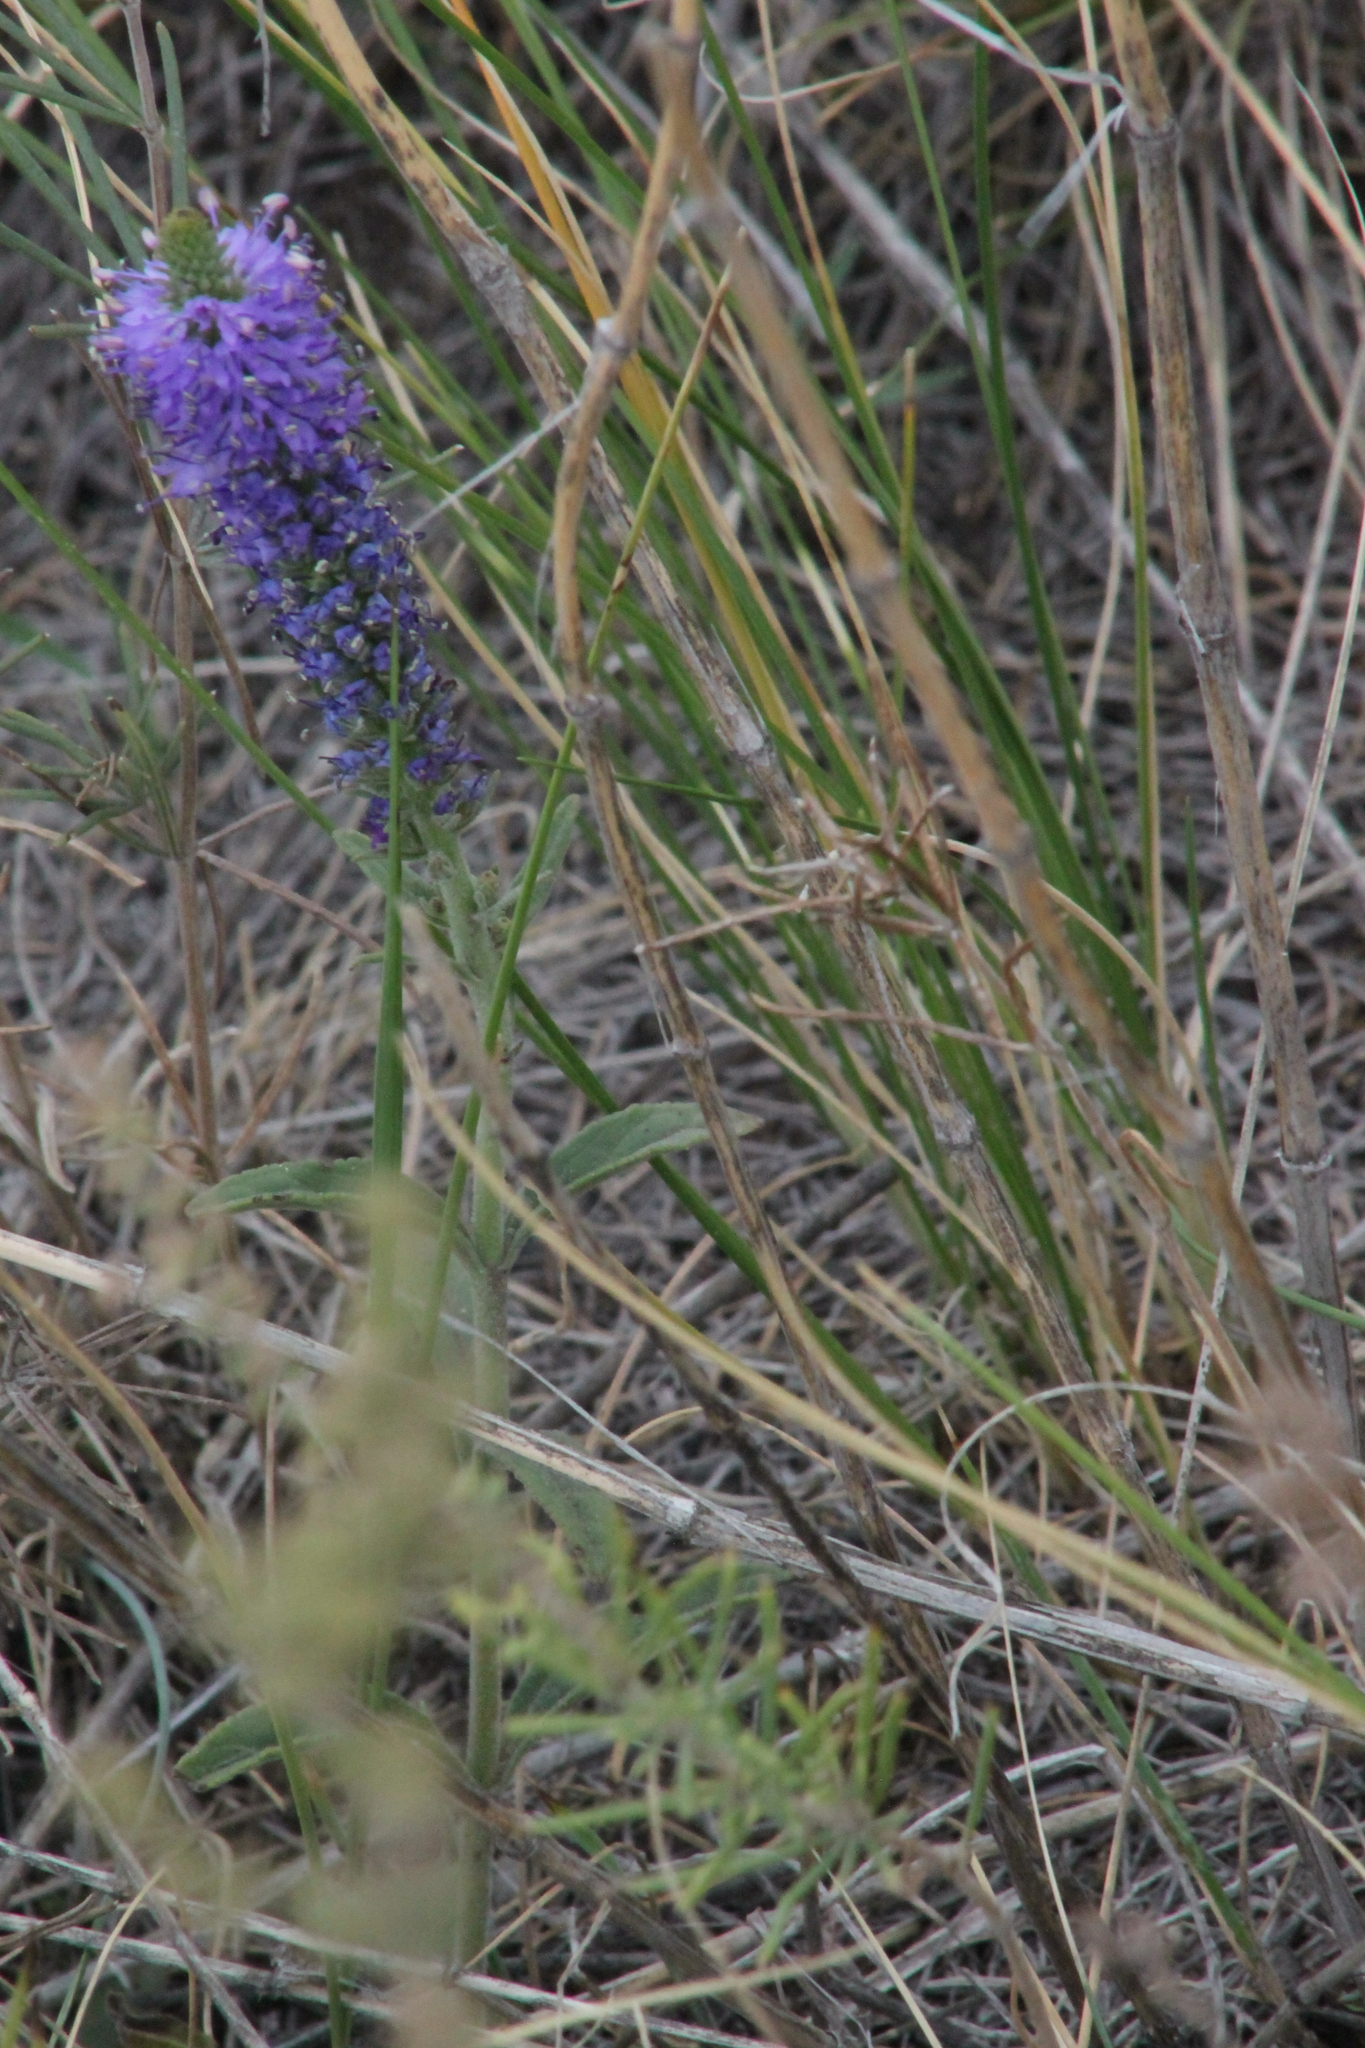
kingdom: Plantae
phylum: Tracheophyta
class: Magnoliopsida
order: Lamiales
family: Plantaginaceae
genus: Veronica
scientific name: Veronica spicata
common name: Spiked speedwell
